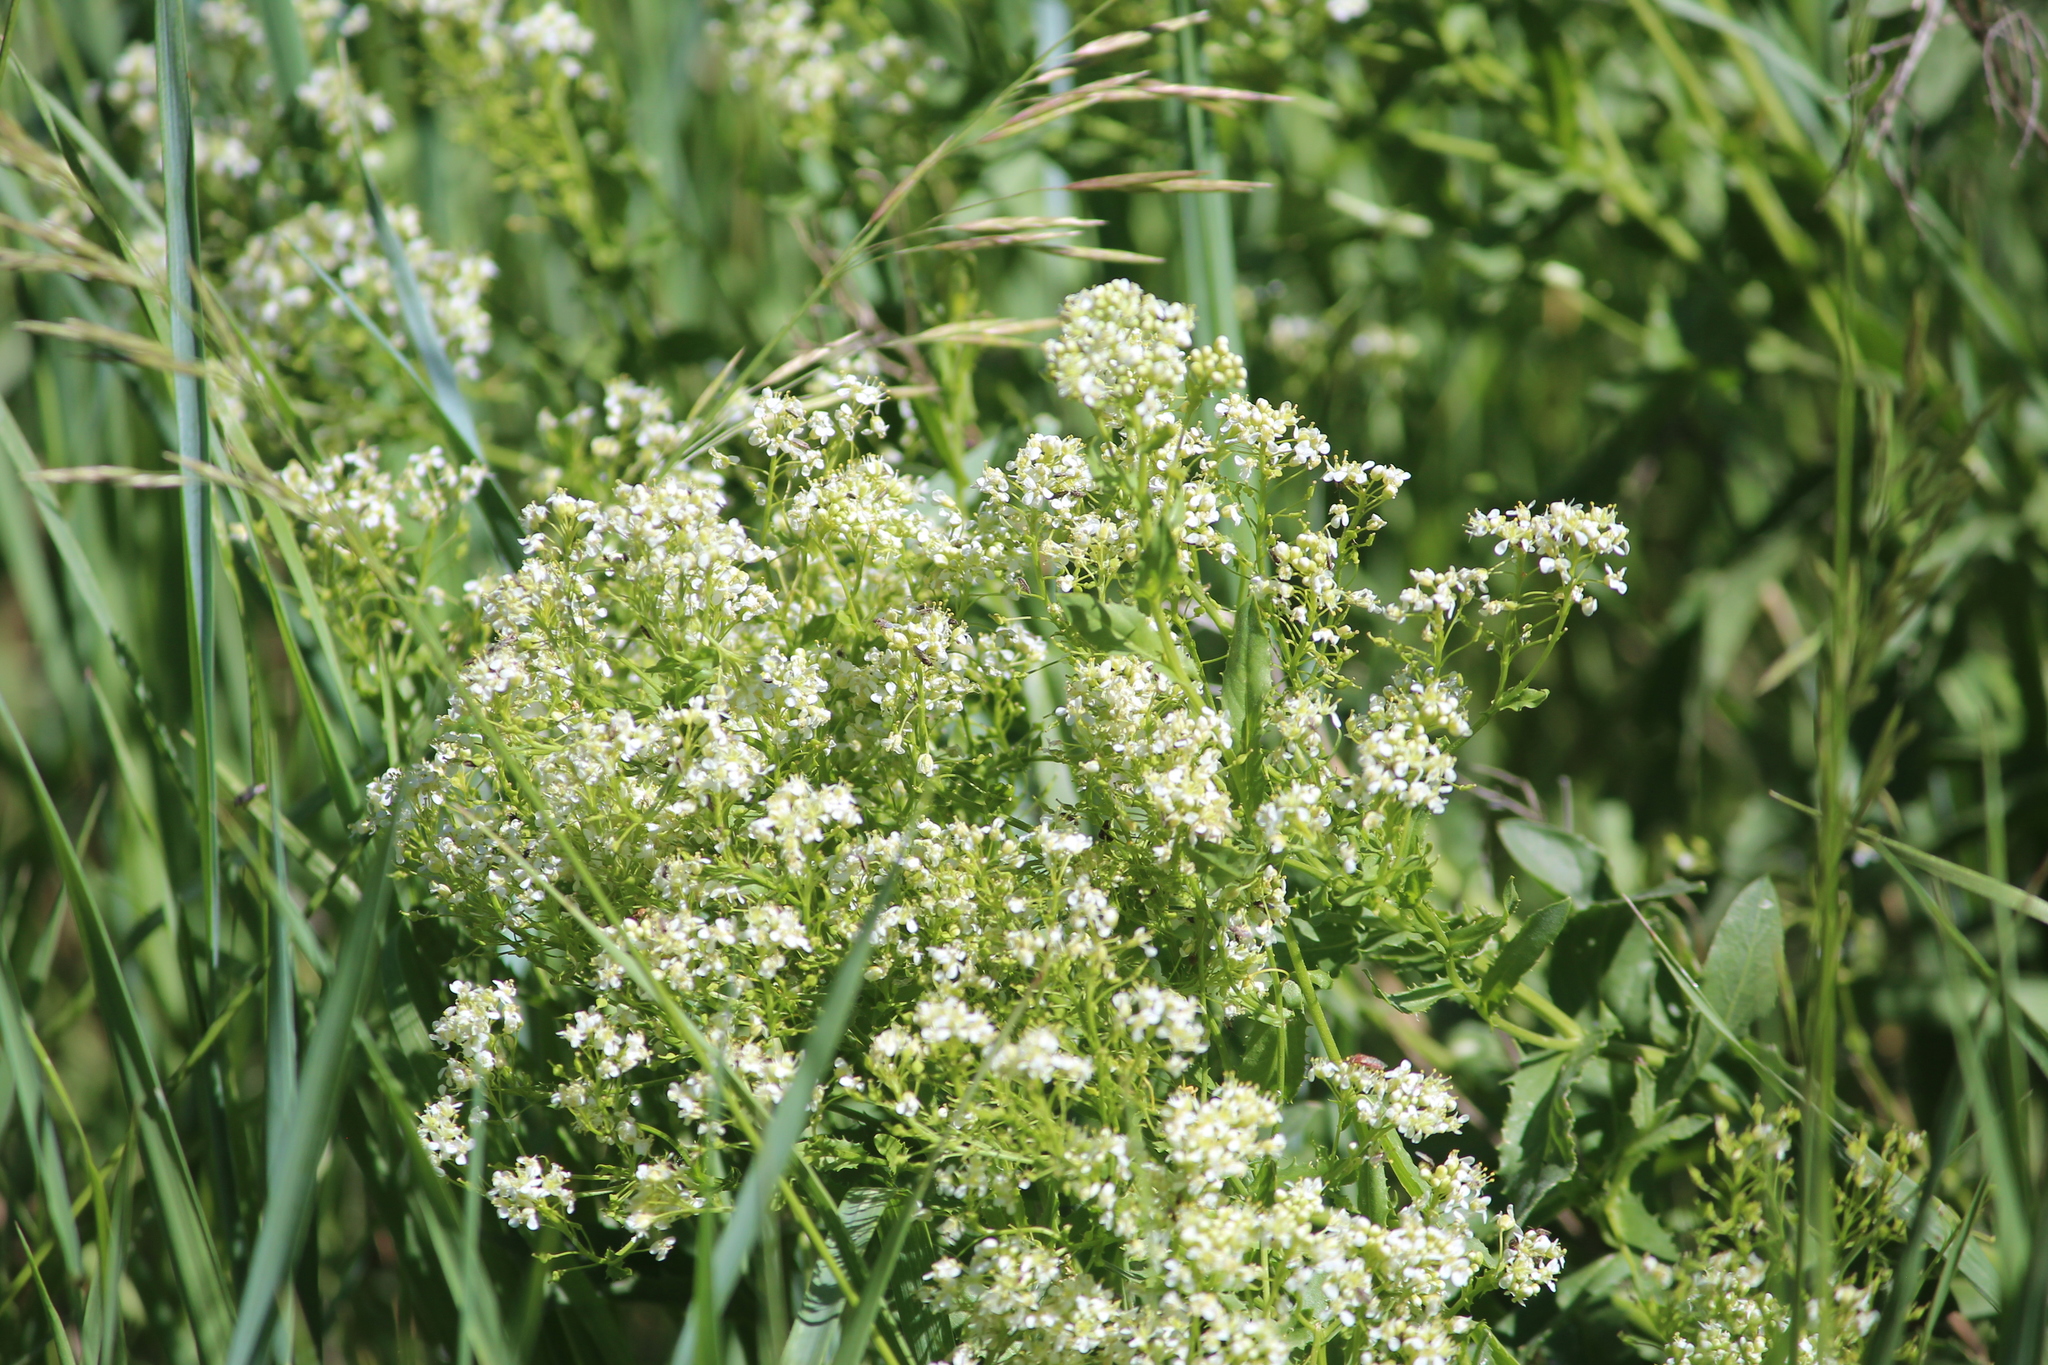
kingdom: Plantae
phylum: Tracheophyta
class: Magnoliopsida
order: Brassicales
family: Brassicaceae
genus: Lepidium
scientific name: Lepidium draba
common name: Hoary cress
